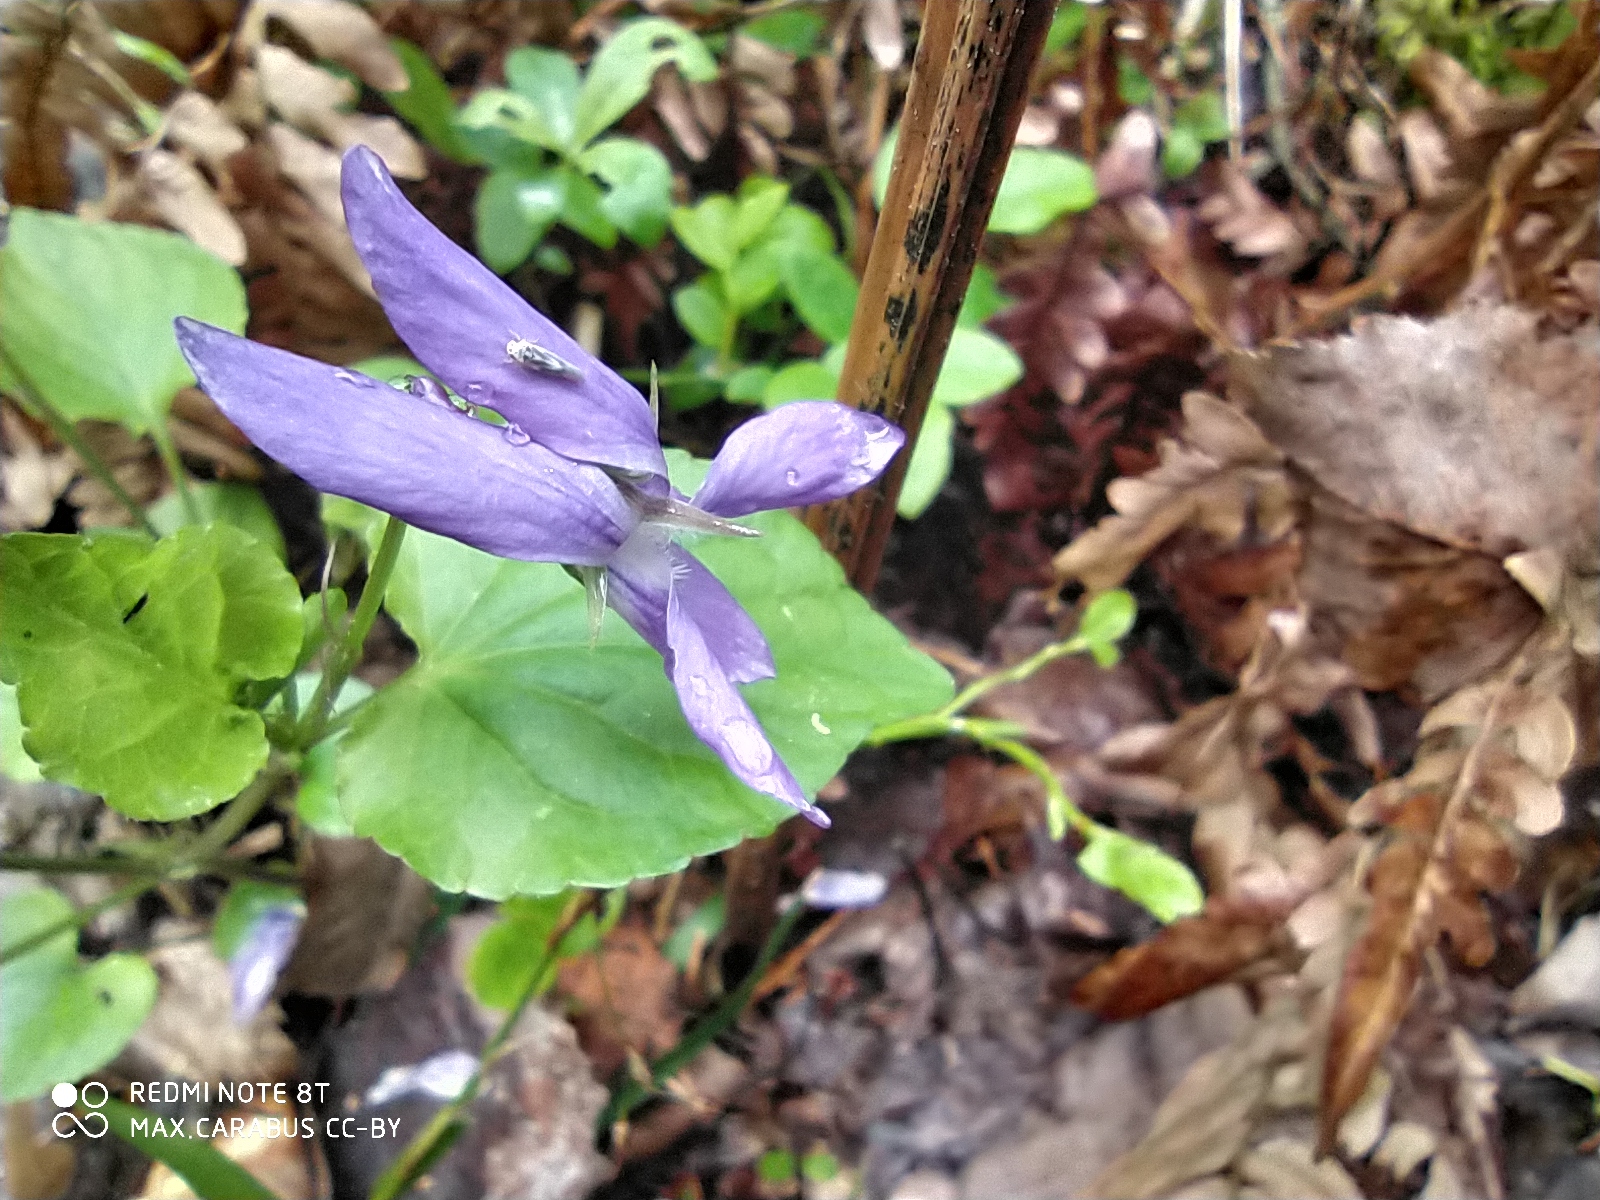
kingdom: Plantae
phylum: Tracheophyta
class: Magnoliopsida
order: Malpighiales
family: Violaceae
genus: Viola
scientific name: Viola riviniana
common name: Common dog-violet
